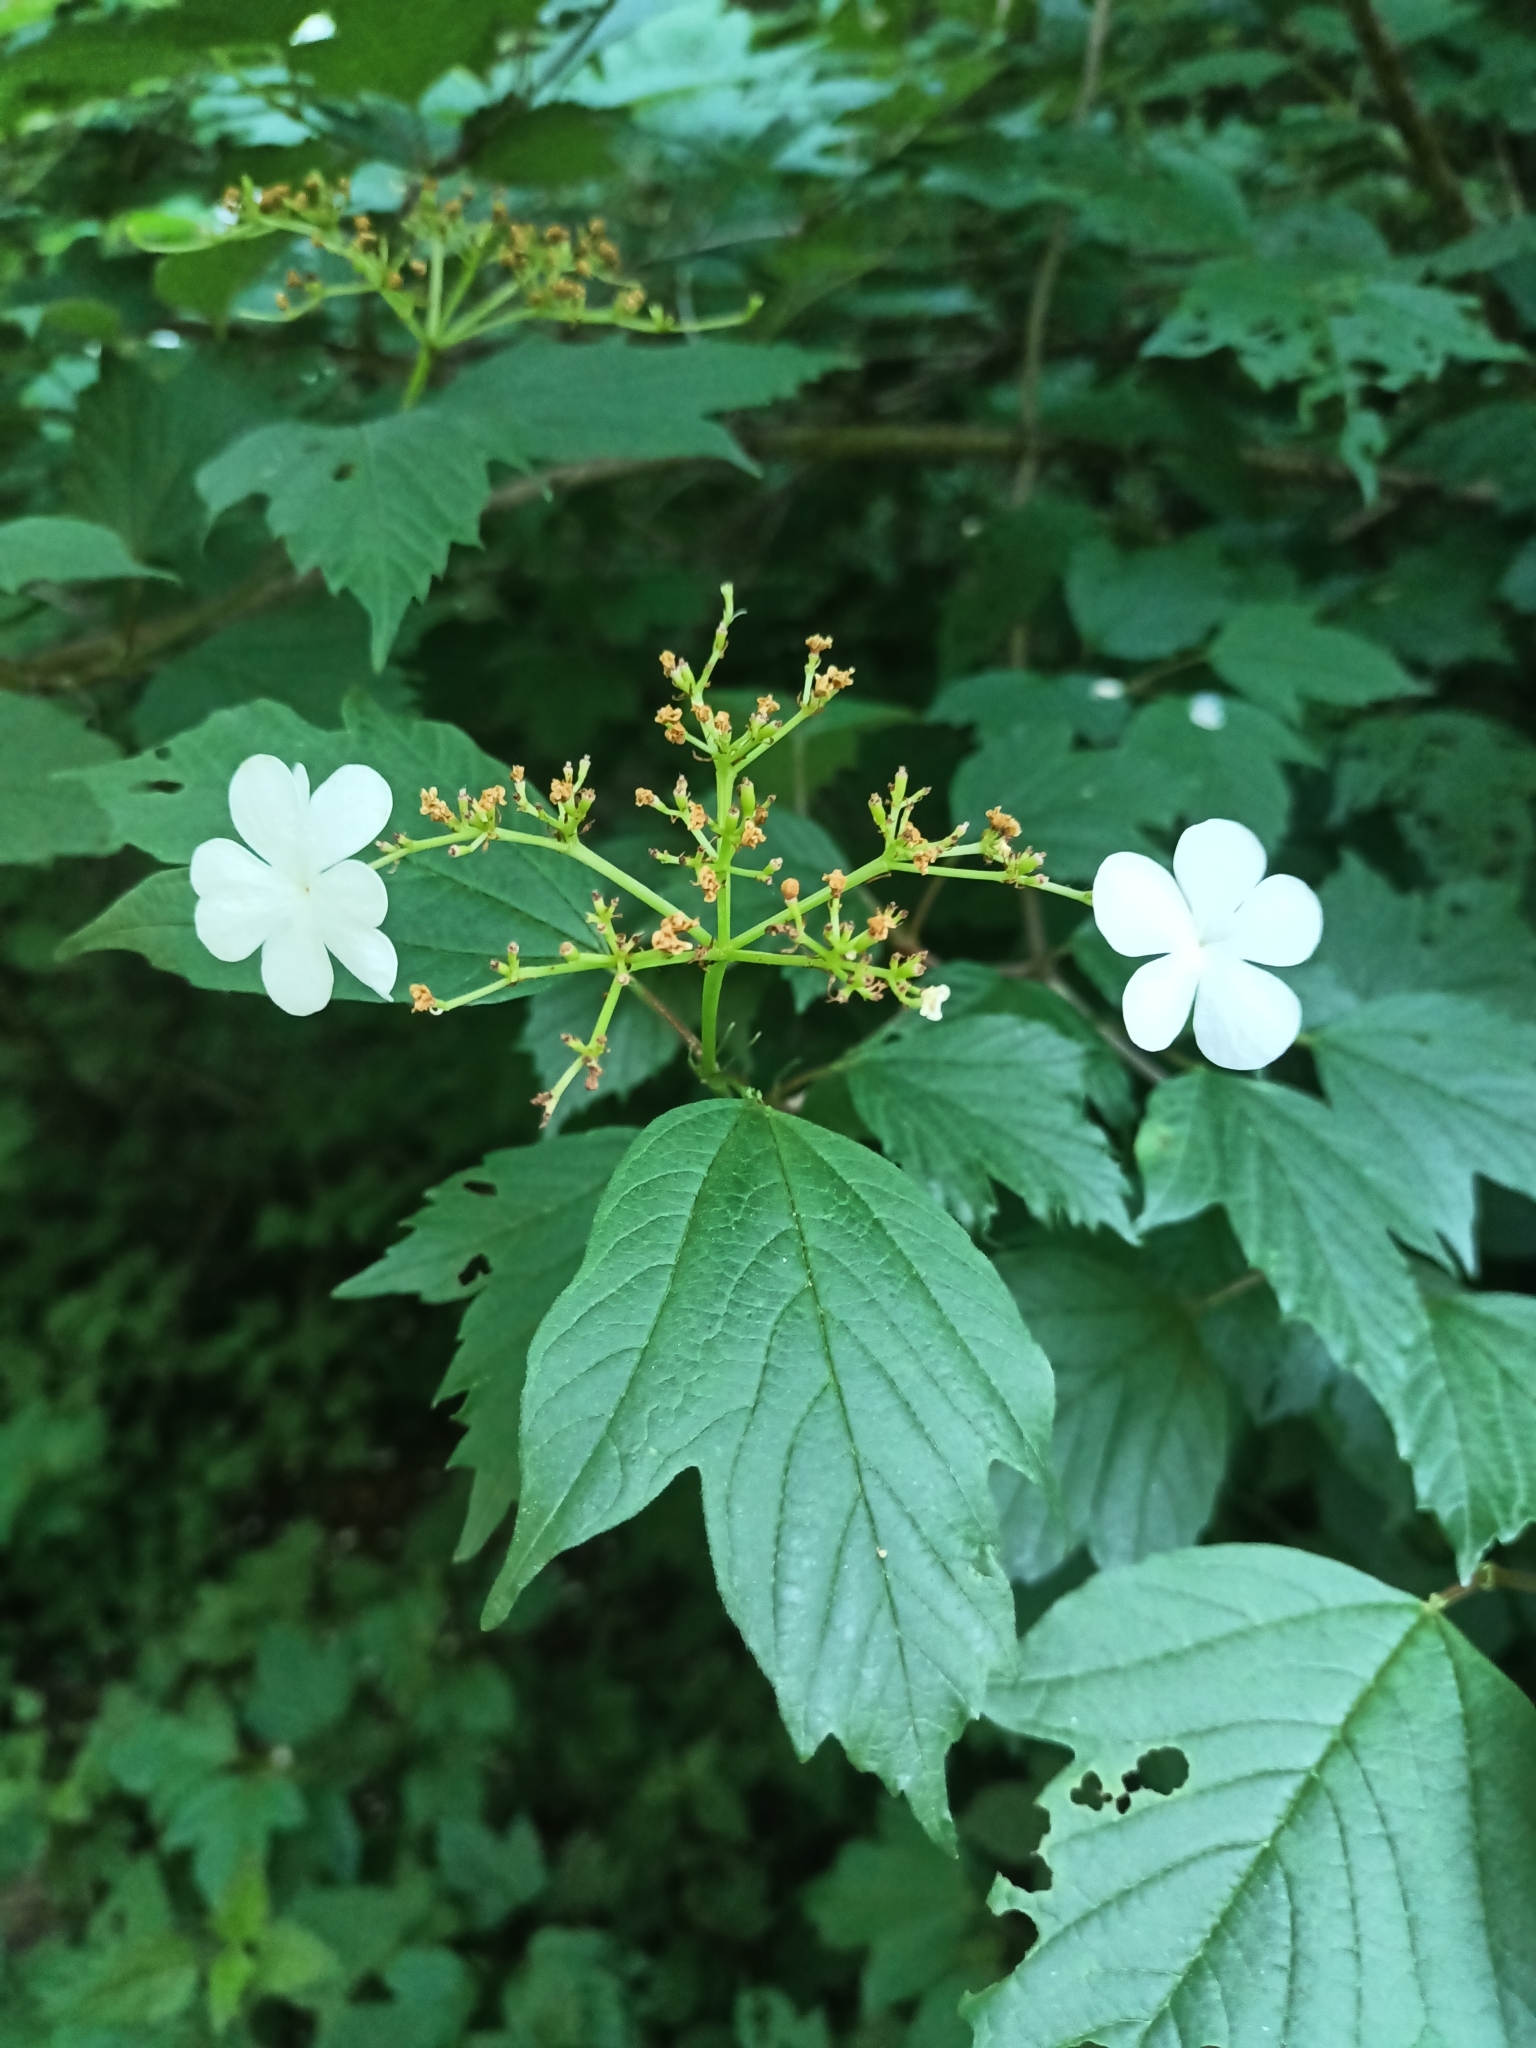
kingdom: Plantae
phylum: Tracheophyta
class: Magnoliopsida
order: Dipsacales
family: Viburnaceae
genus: Viburnum
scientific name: Viburnum opulus
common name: Guelder-rose
